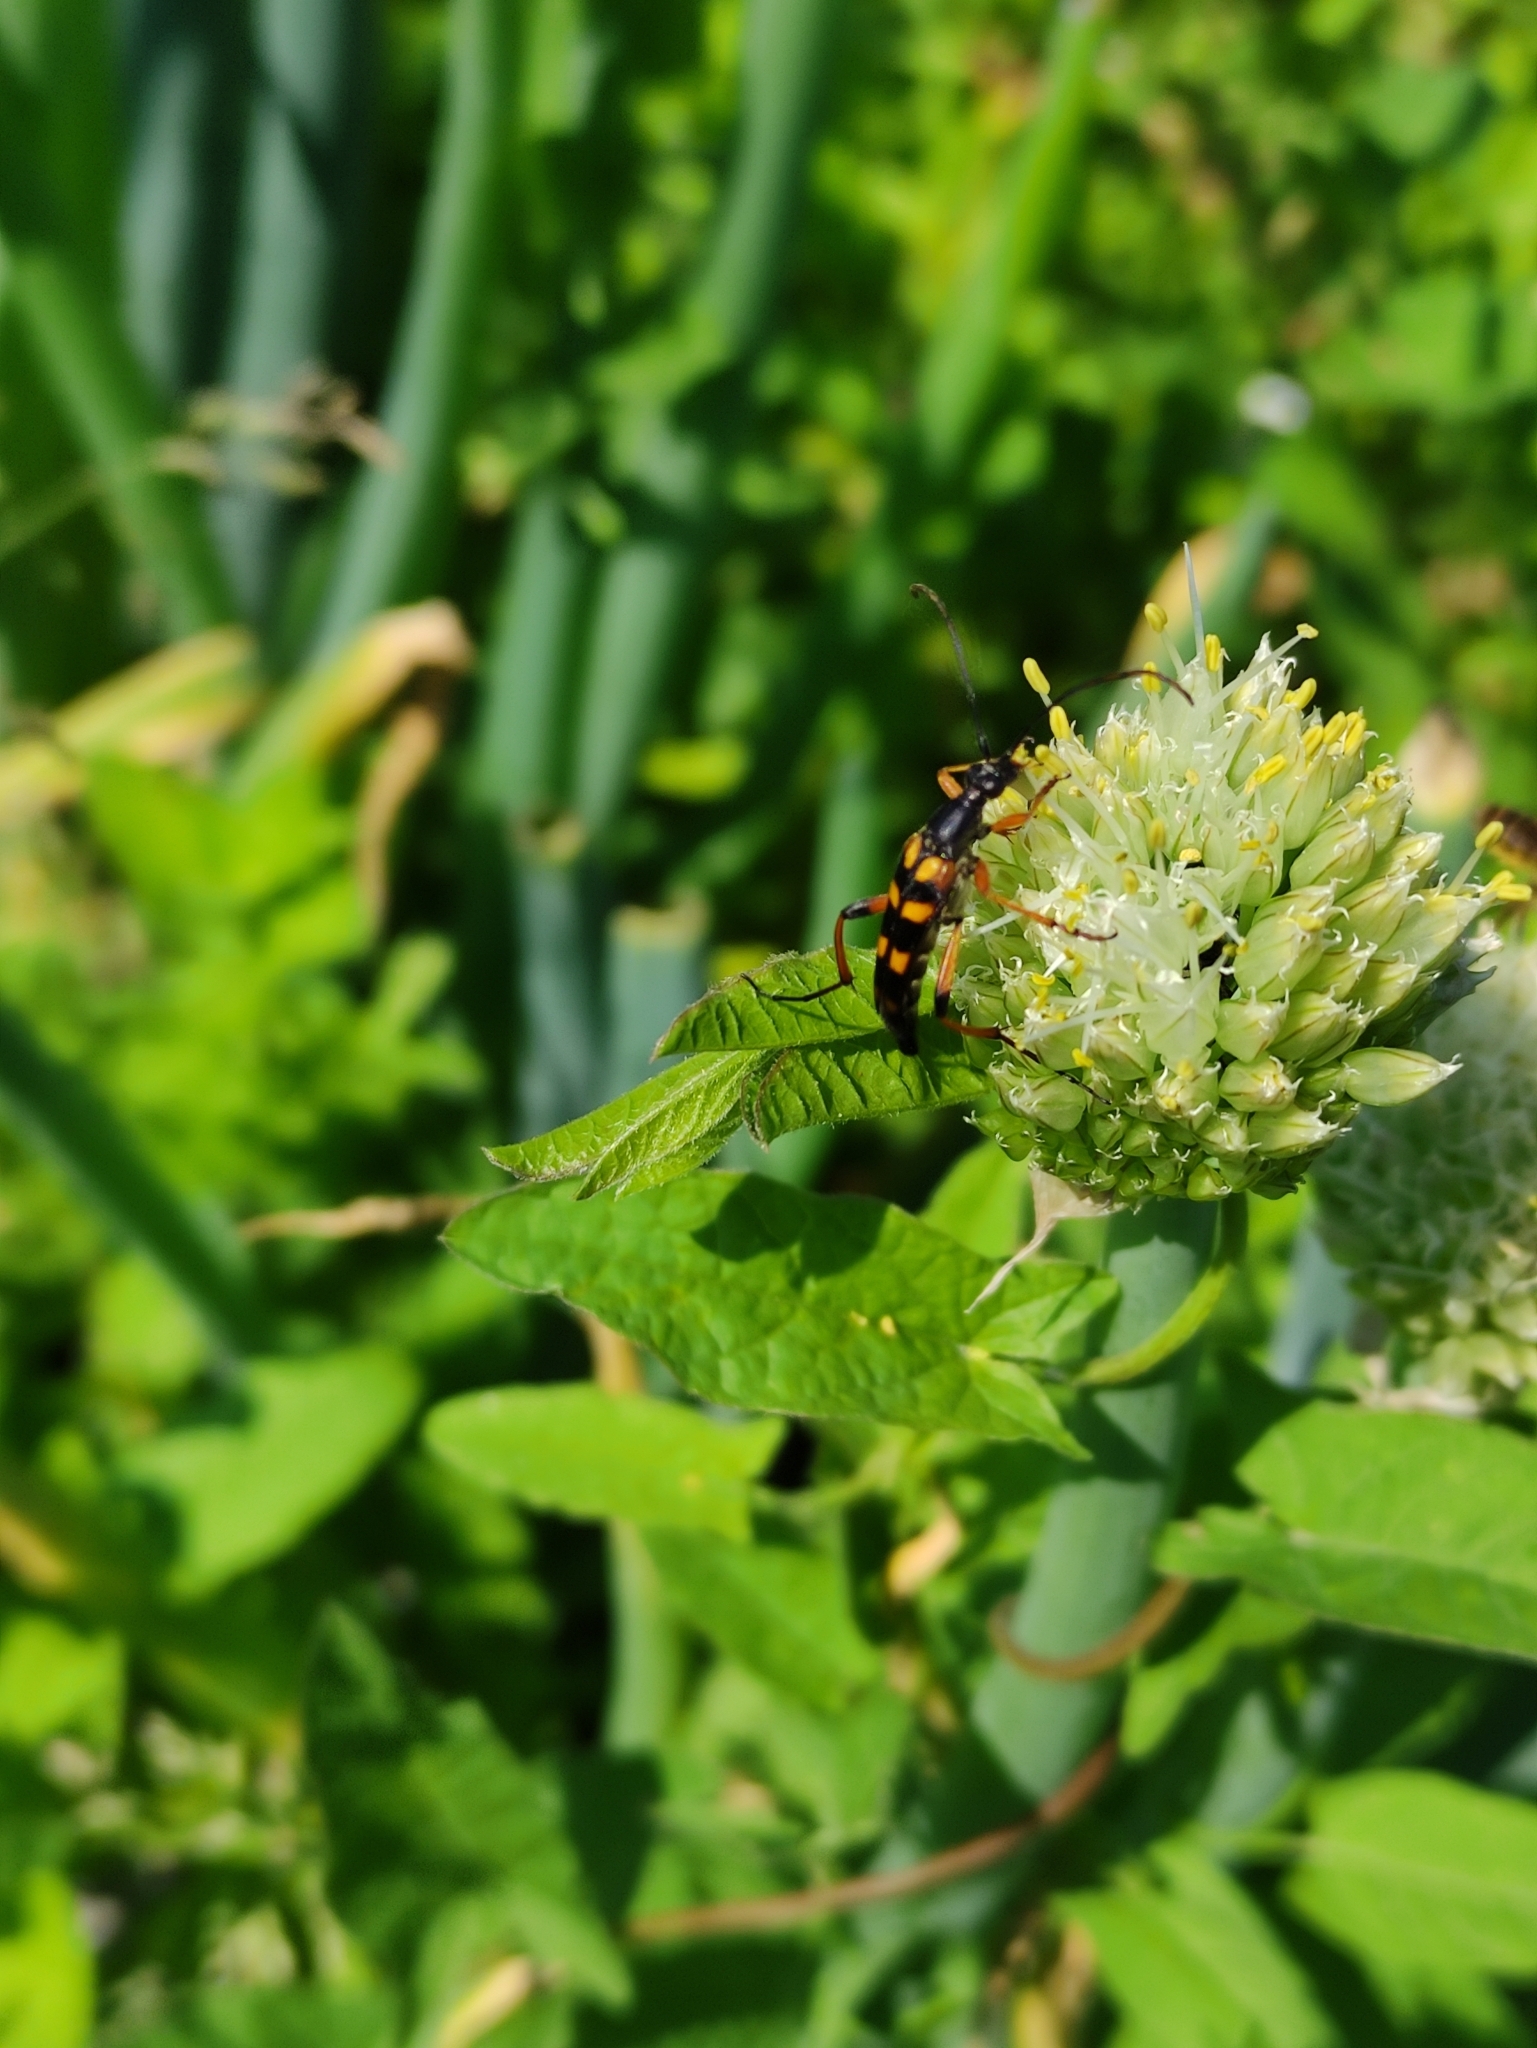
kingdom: Animalia
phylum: Arthropoda
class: Insecta
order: Coleoptera
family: Cerambycidae
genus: Strangalia
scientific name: Strangalia attenuata
